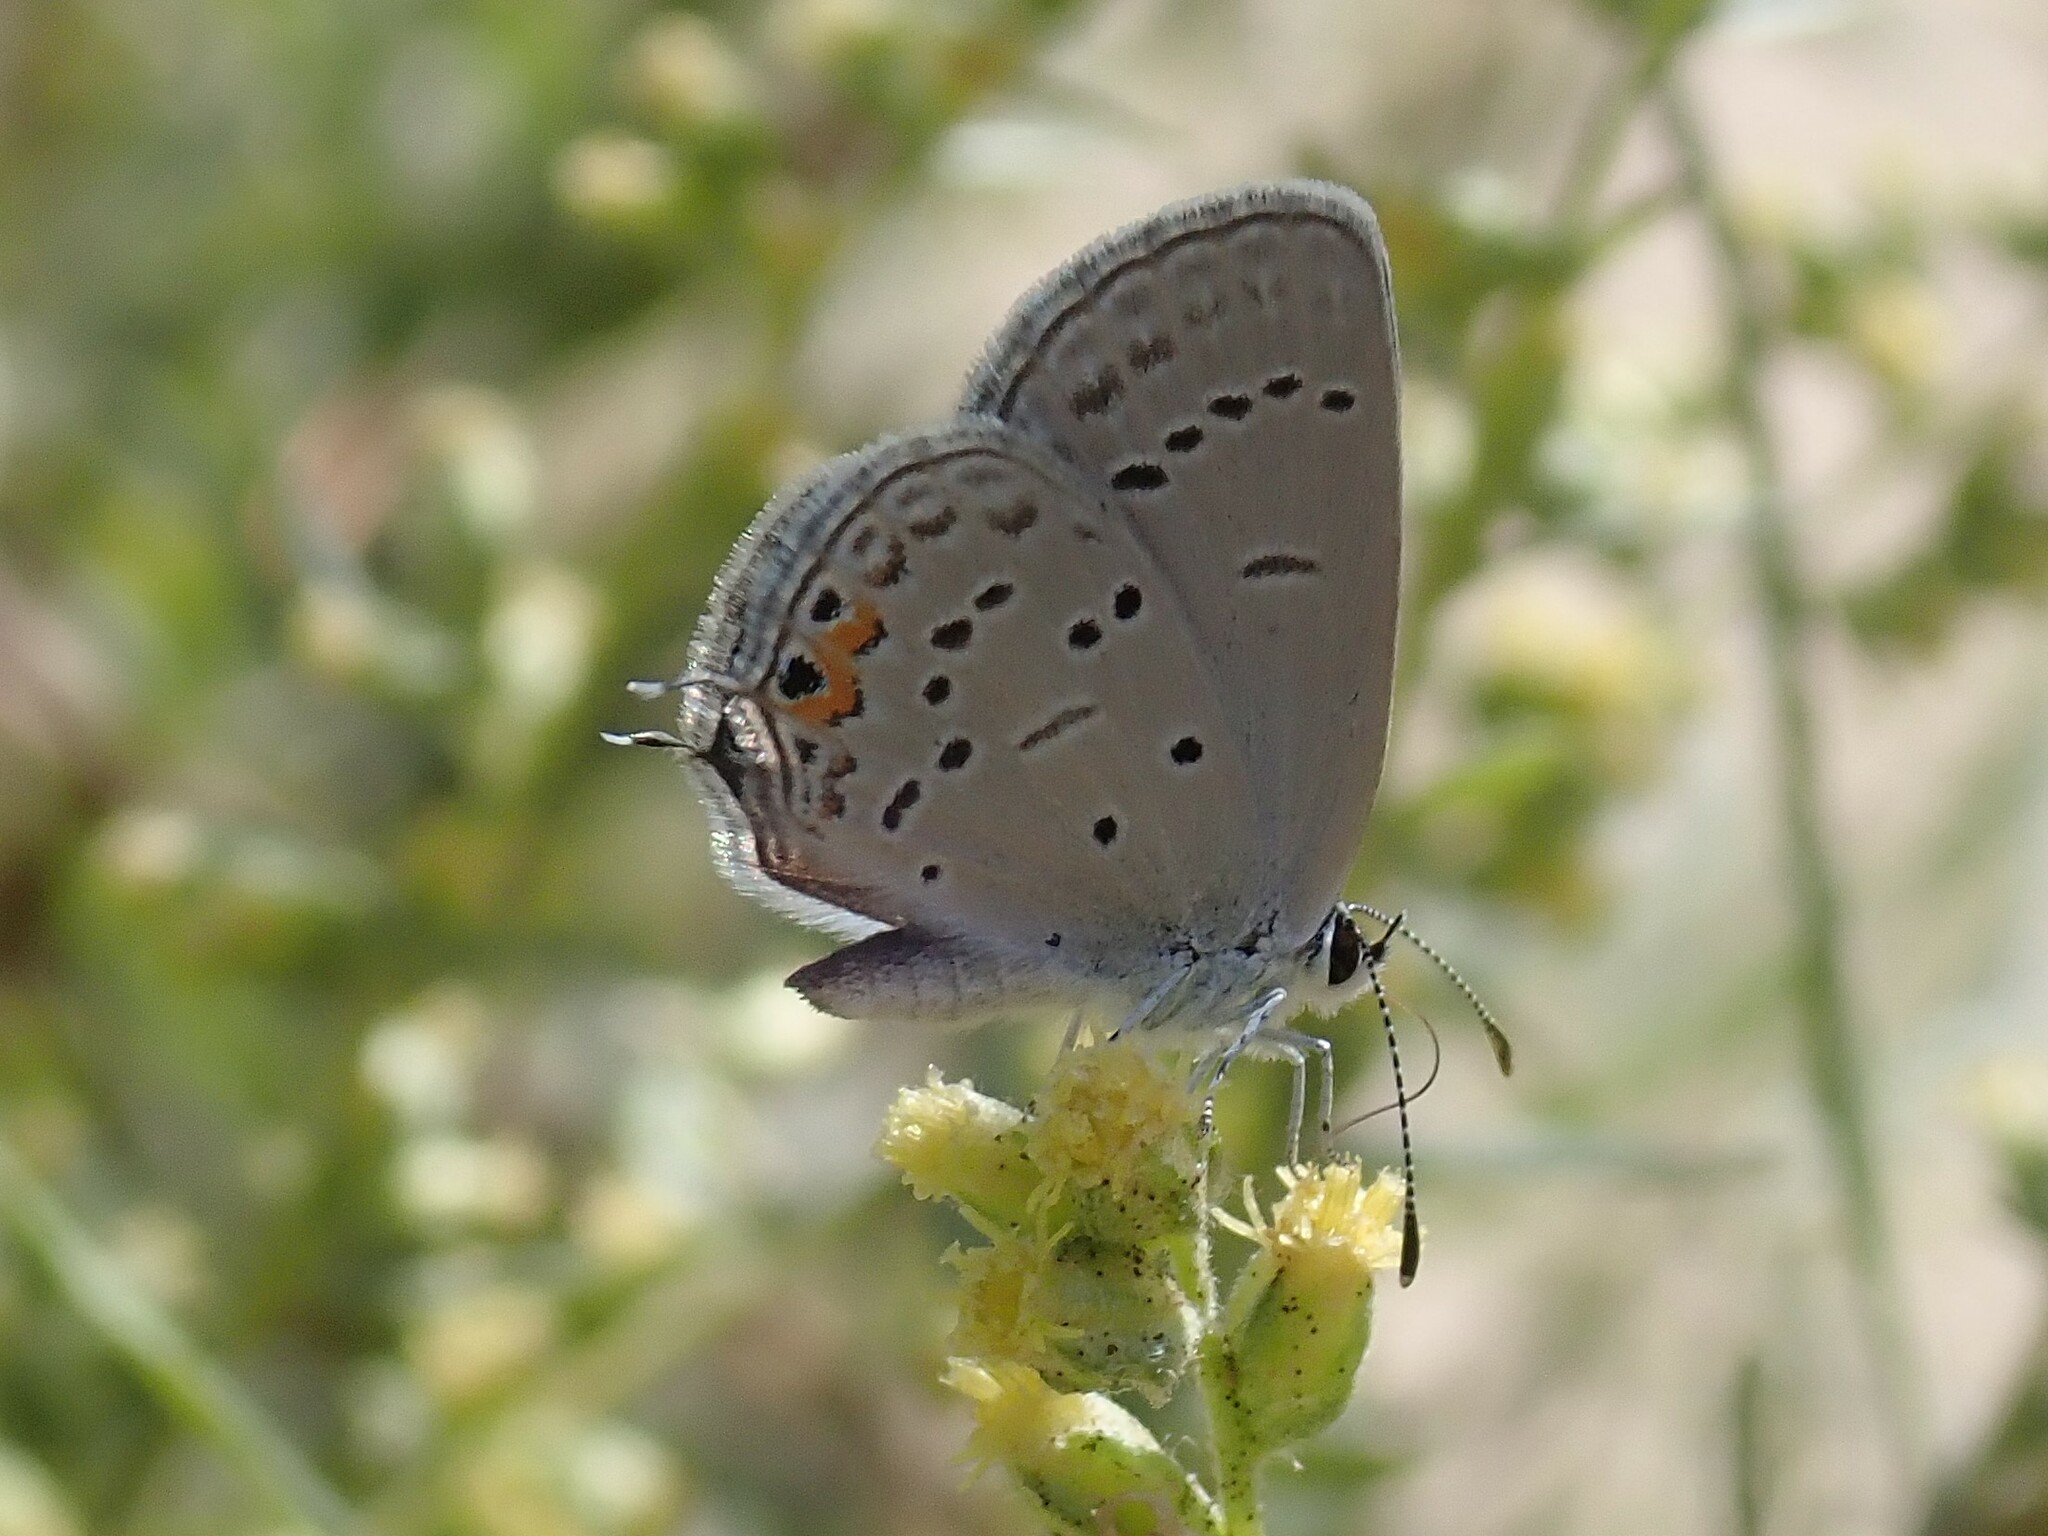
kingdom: Animalia
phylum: Arthropoda
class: Insecta
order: Lepidoptera
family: Lycaenidae
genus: Elkalyce
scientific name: Elkalyce amyntula
